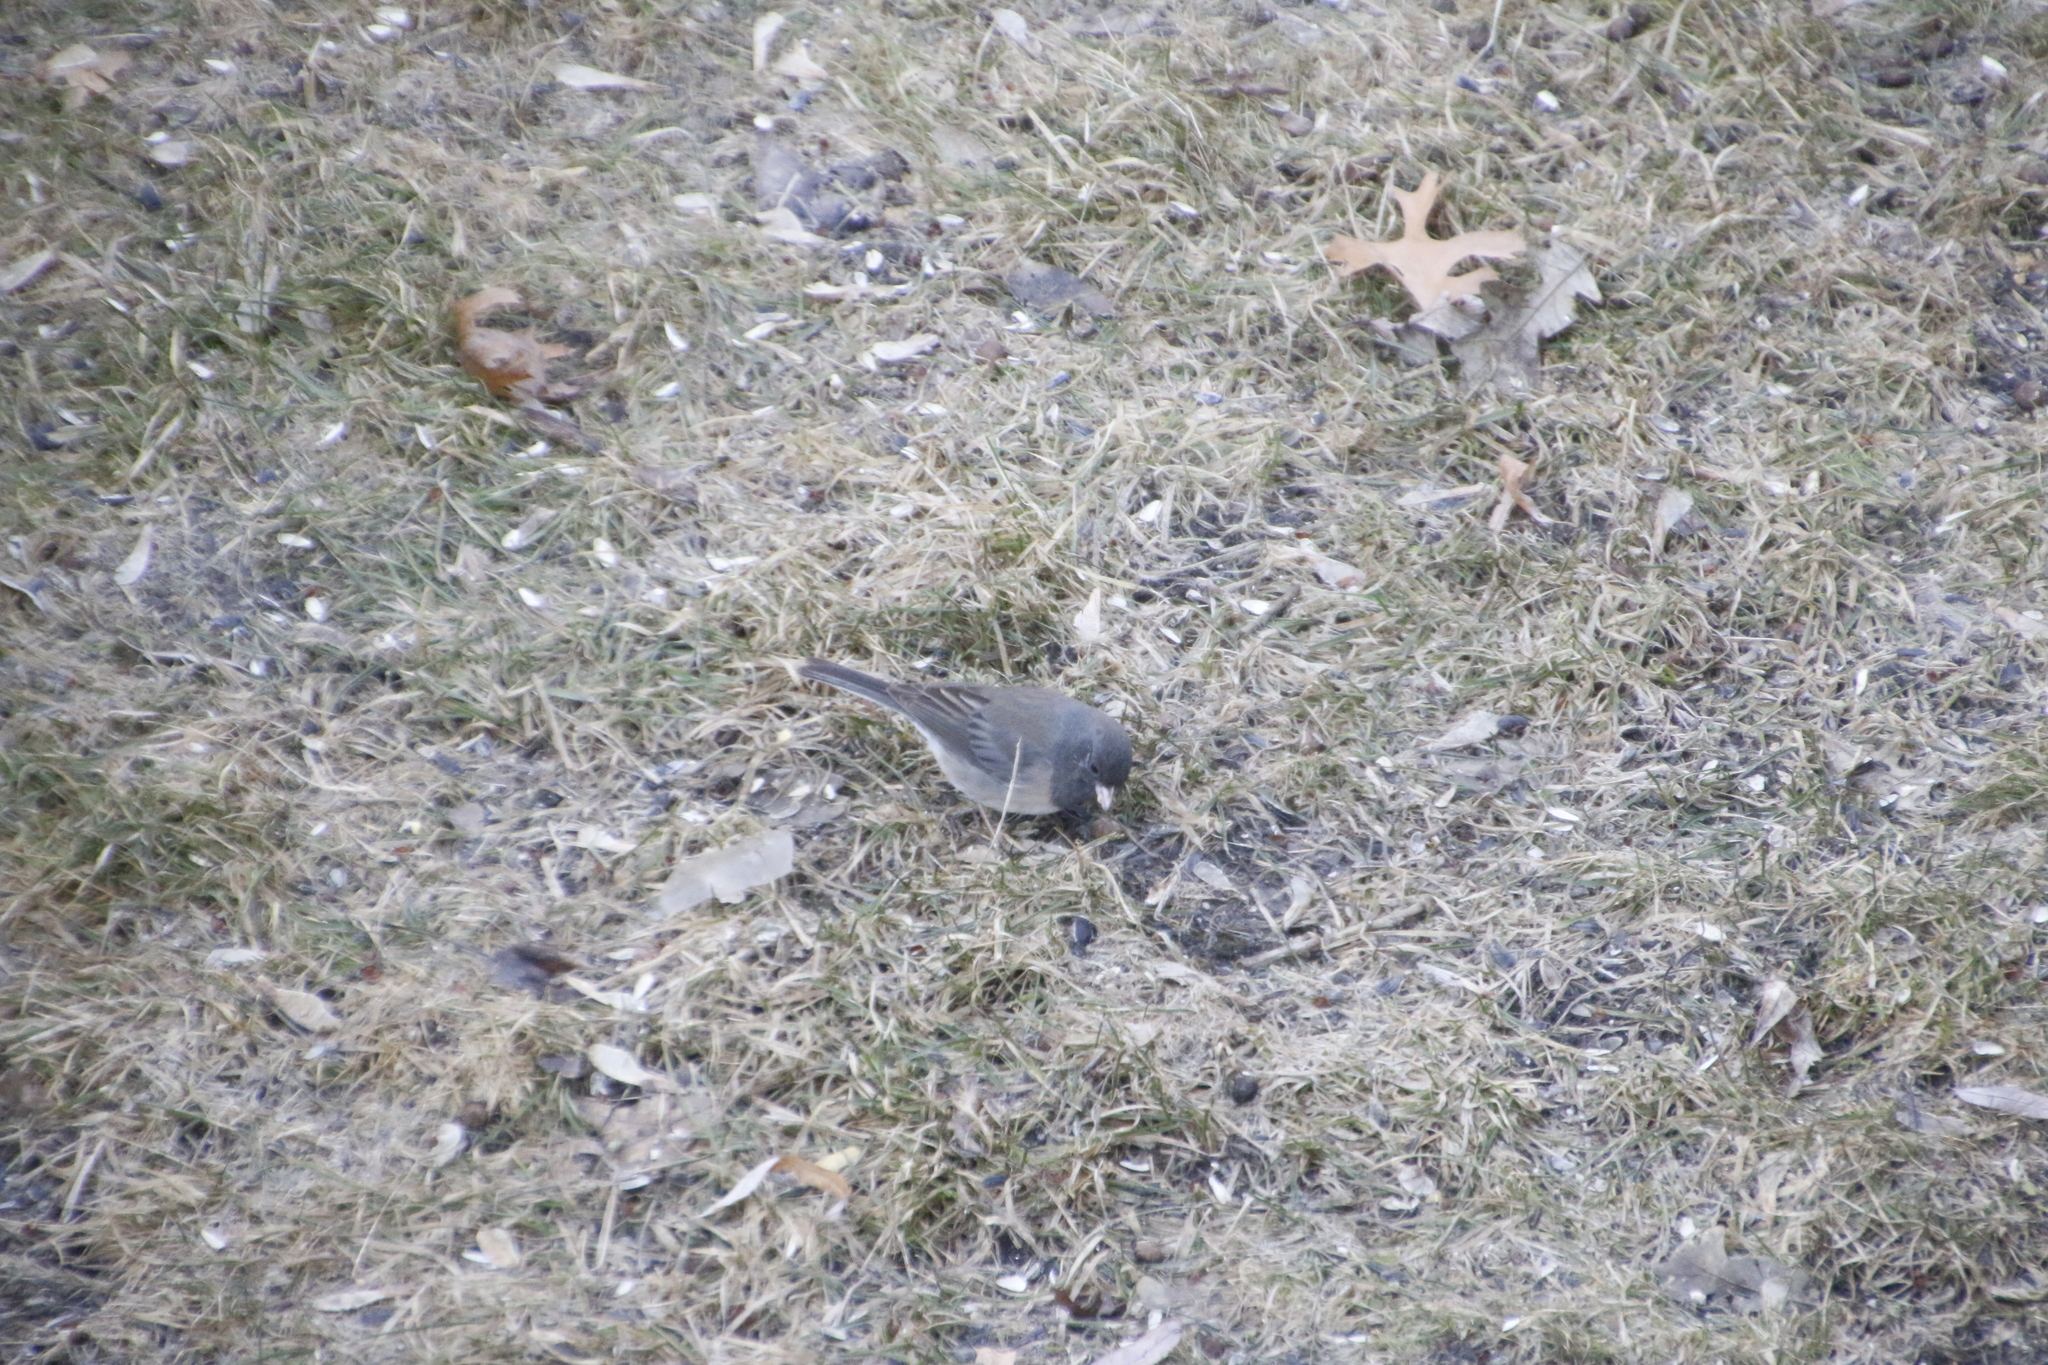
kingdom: Animalia
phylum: Chordata
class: Aves
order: Passeriformes
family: Passerellidae
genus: Junco
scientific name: Junco hyemalis
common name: Dark-eyed junco
